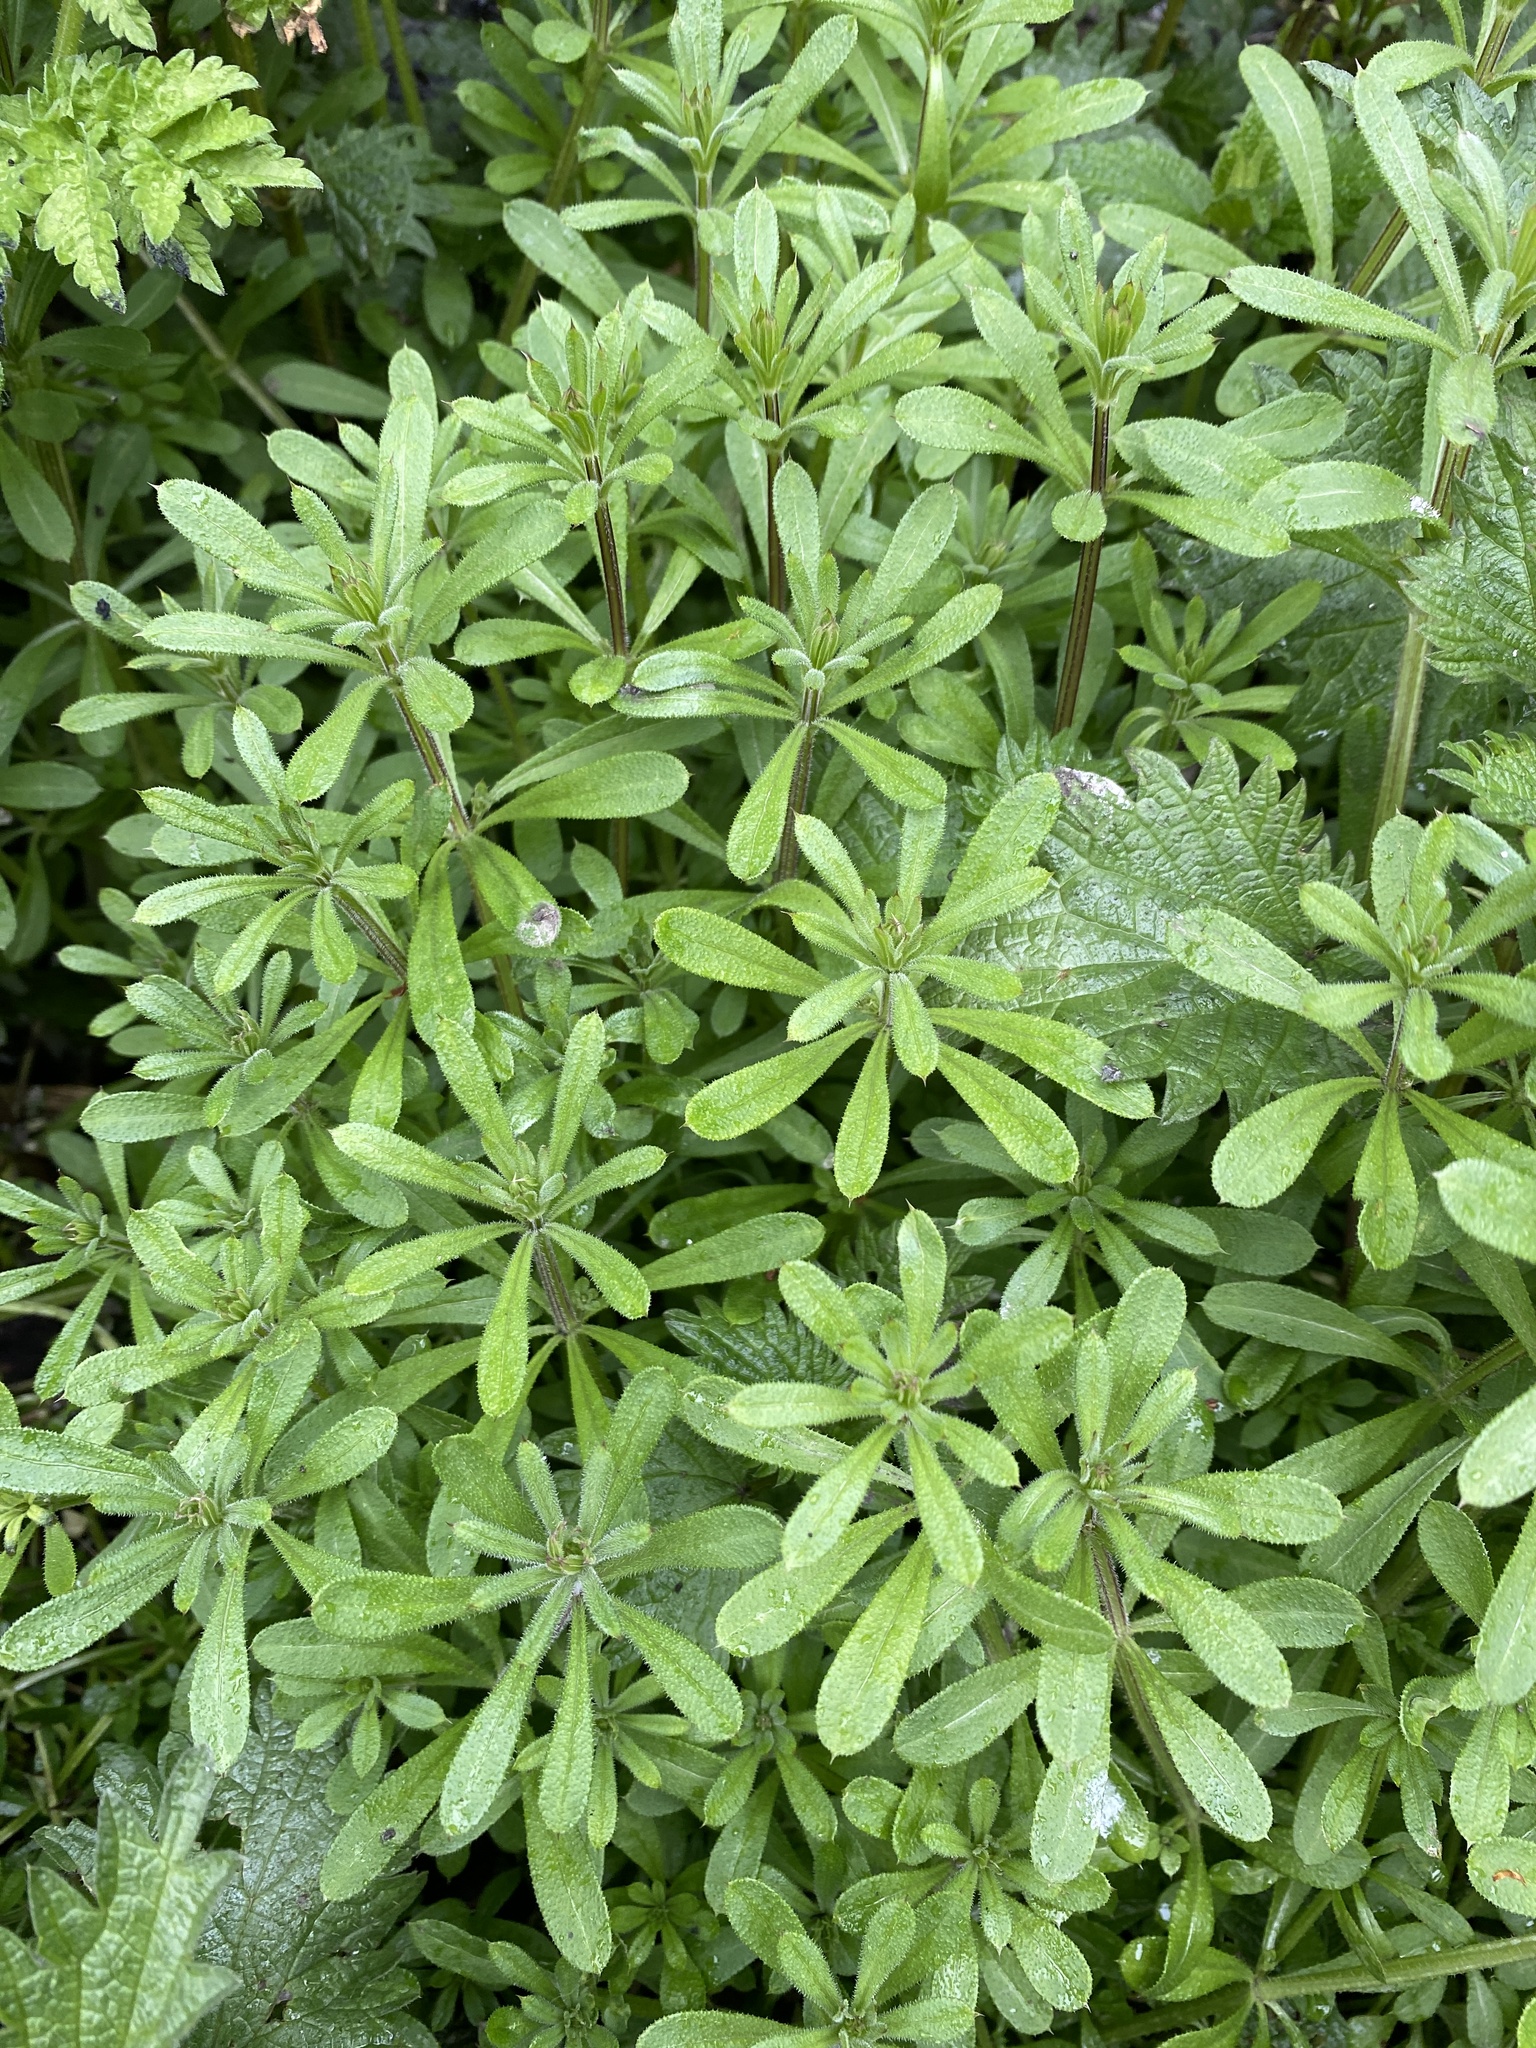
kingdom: Plantae
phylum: Tracheophyta
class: Magnoliopsida
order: Gentianales
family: Rubiaceae
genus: Galium
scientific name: Galium aparine
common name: Cleavers
